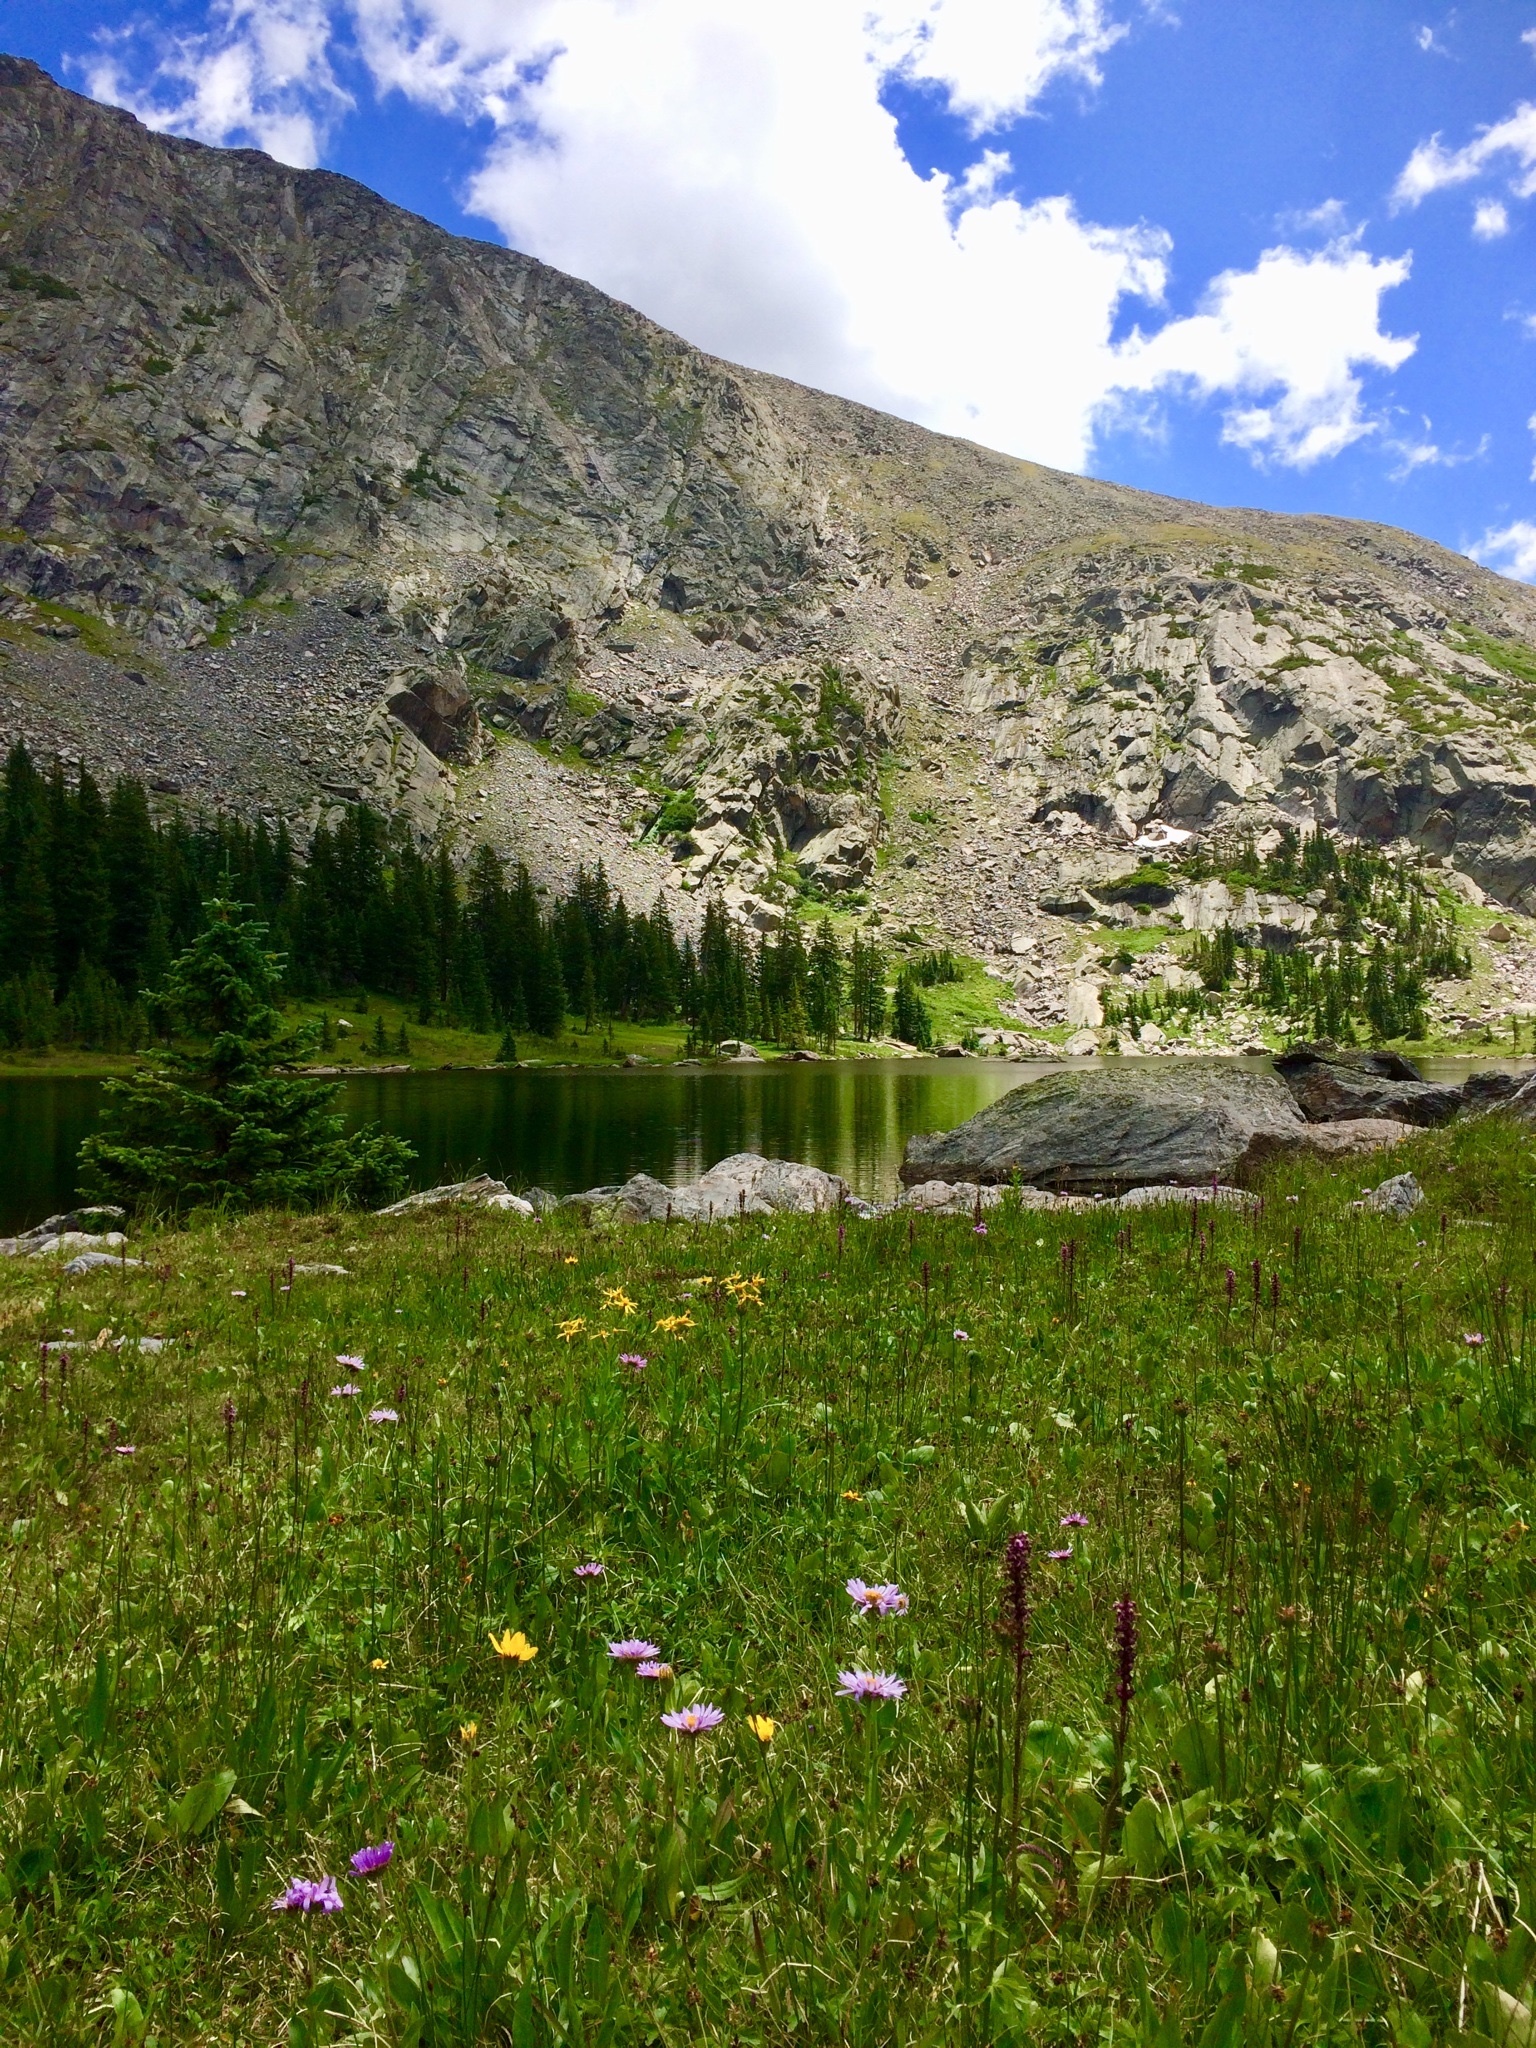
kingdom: Plantae
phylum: Tracheophyta
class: Magnoliopsida
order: Lamiales
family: Orobanchaceae
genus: Pedicularis
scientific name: Pedicularis groenlandica
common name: Elephant's-head
